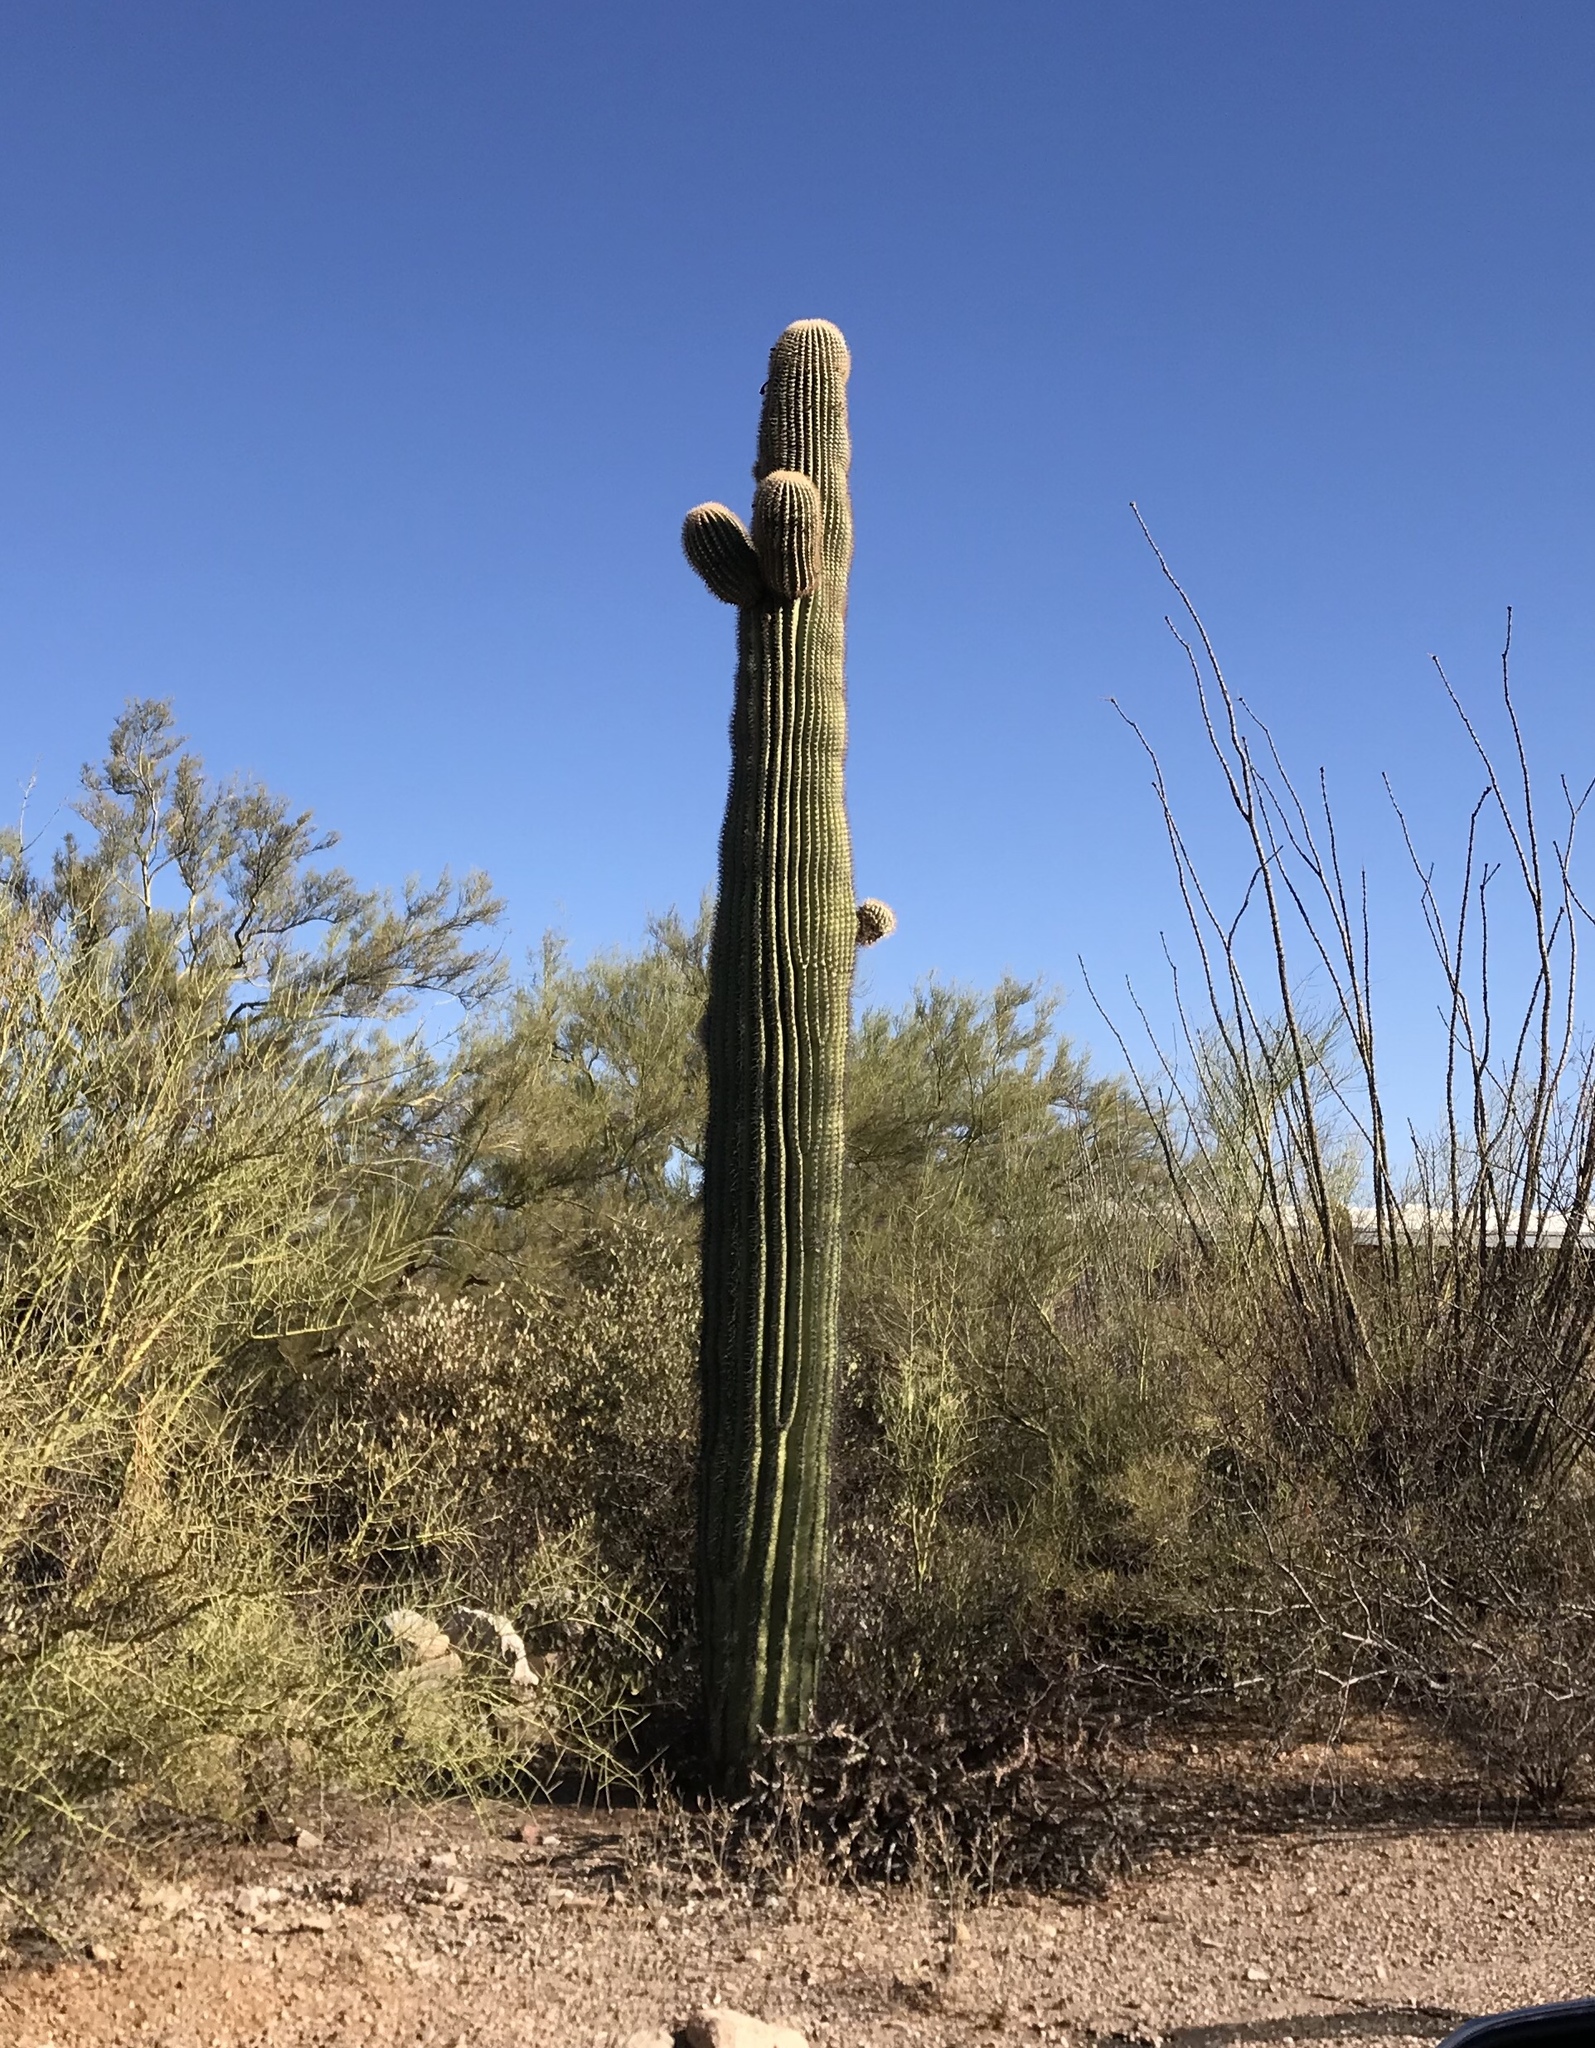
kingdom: Plantae
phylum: Tracheophyta
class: Magnoliopsida
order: Caryophyllales
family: Cactaceae
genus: Carnegiea
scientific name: Carnegiea gigantea
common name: Saguaro
